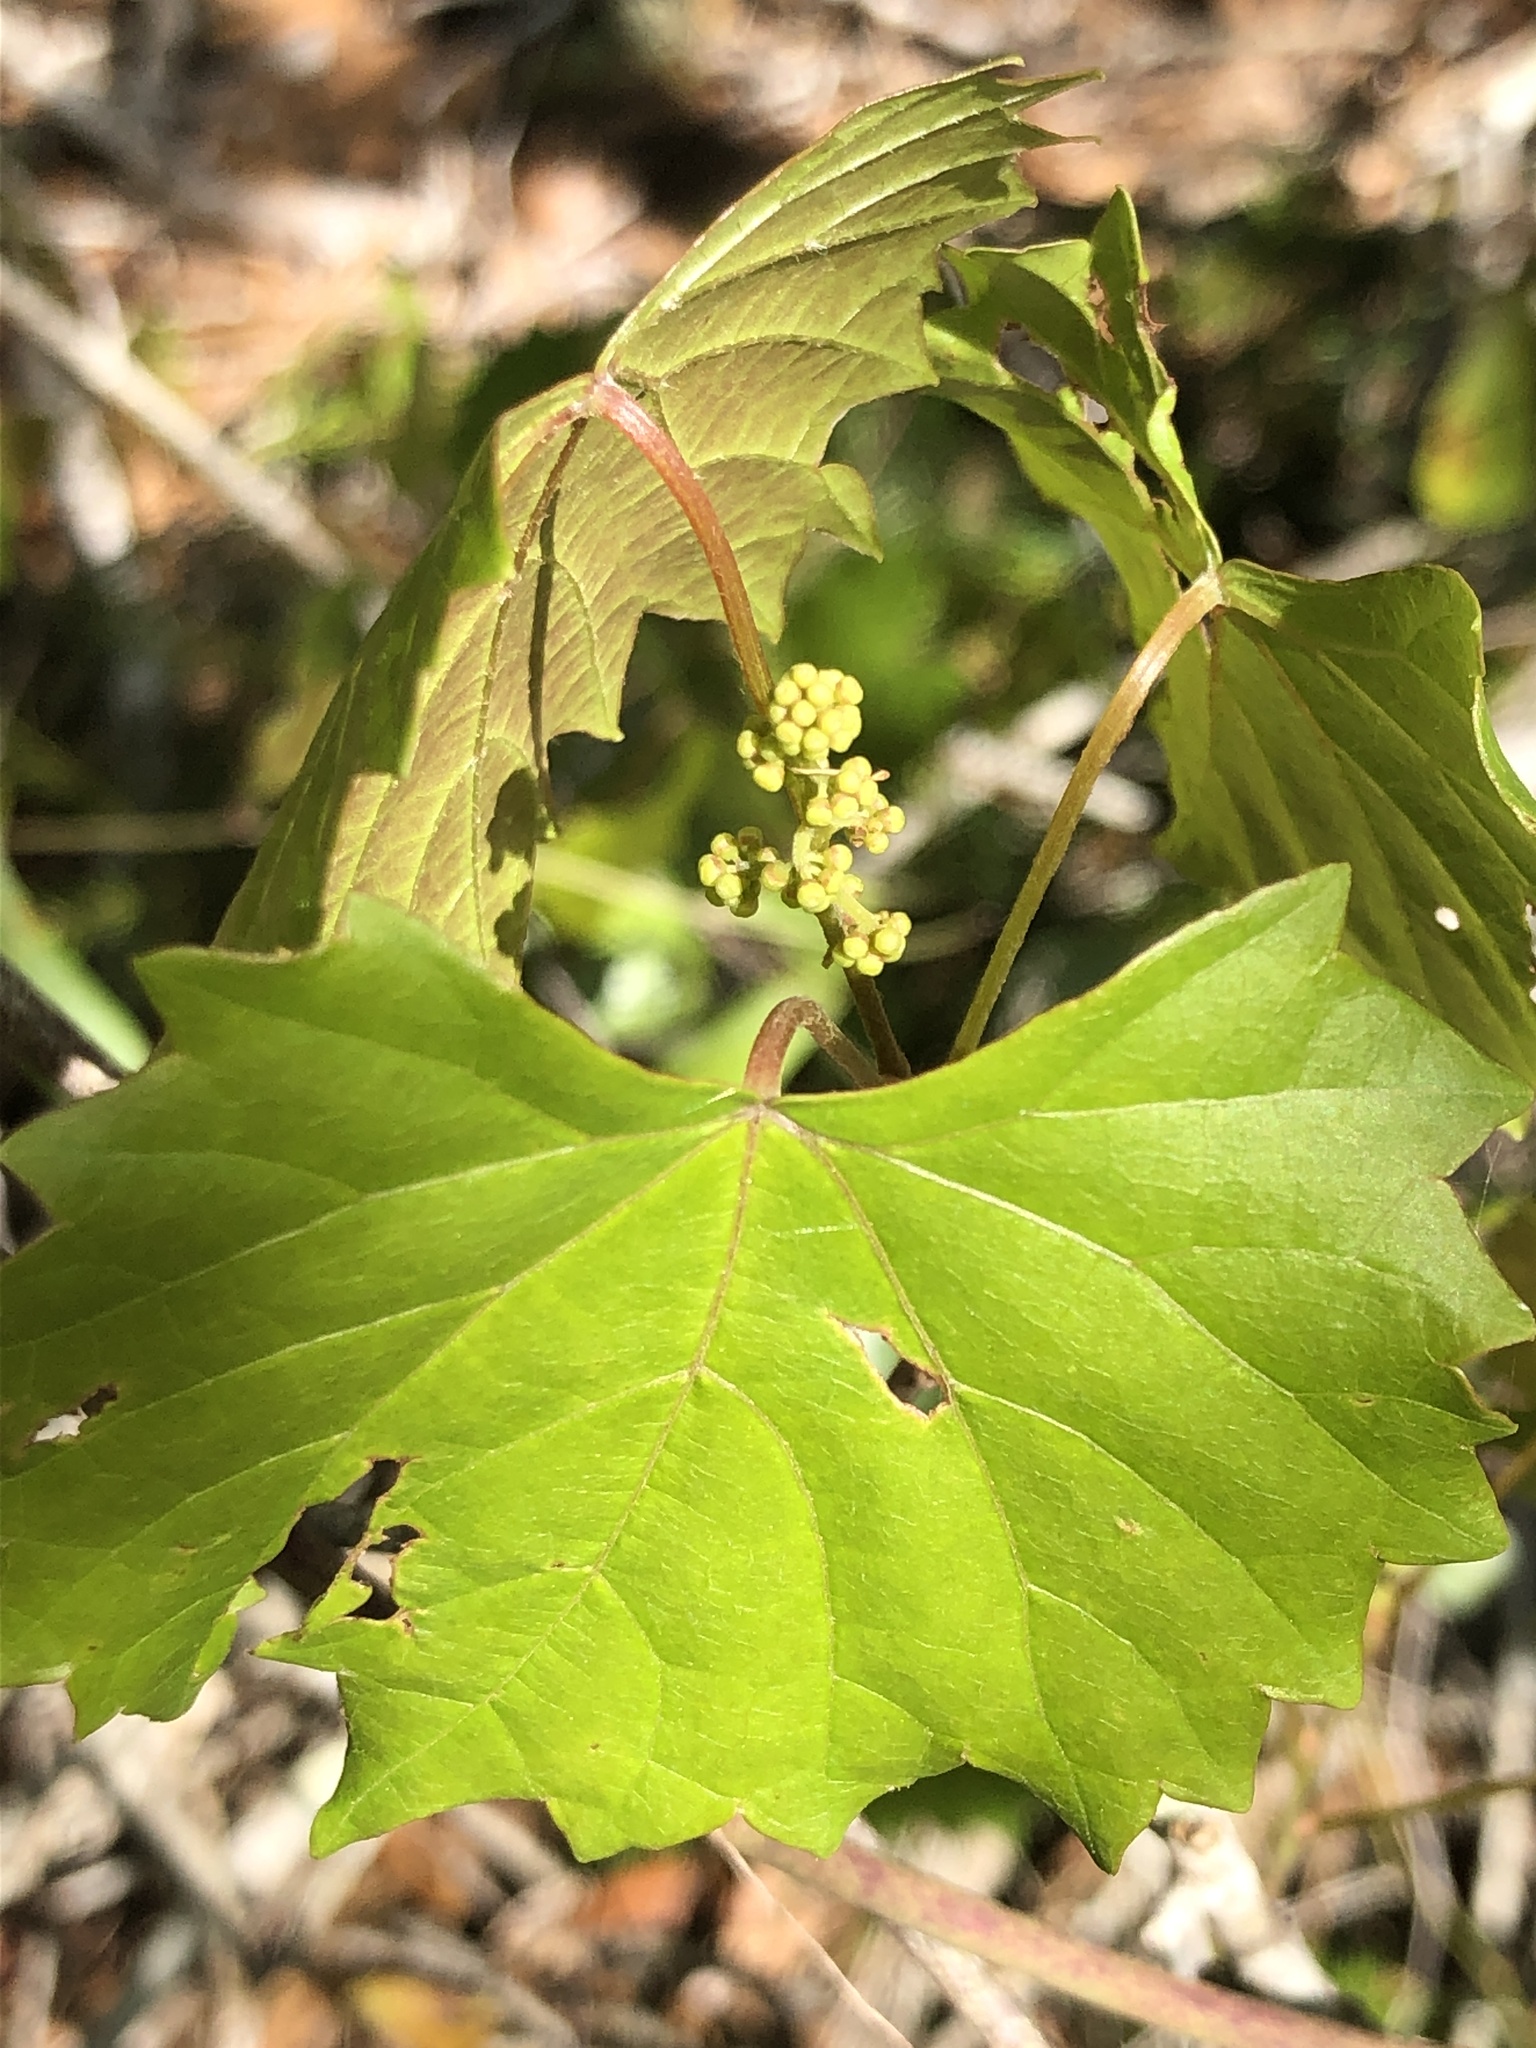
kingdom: Plantae
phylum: Tracheophyta
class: Magnoliopsida
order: Vitales
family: Vitaceae
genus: Vitis
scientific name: Vitis rotundifolia
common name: Muscadine grape
